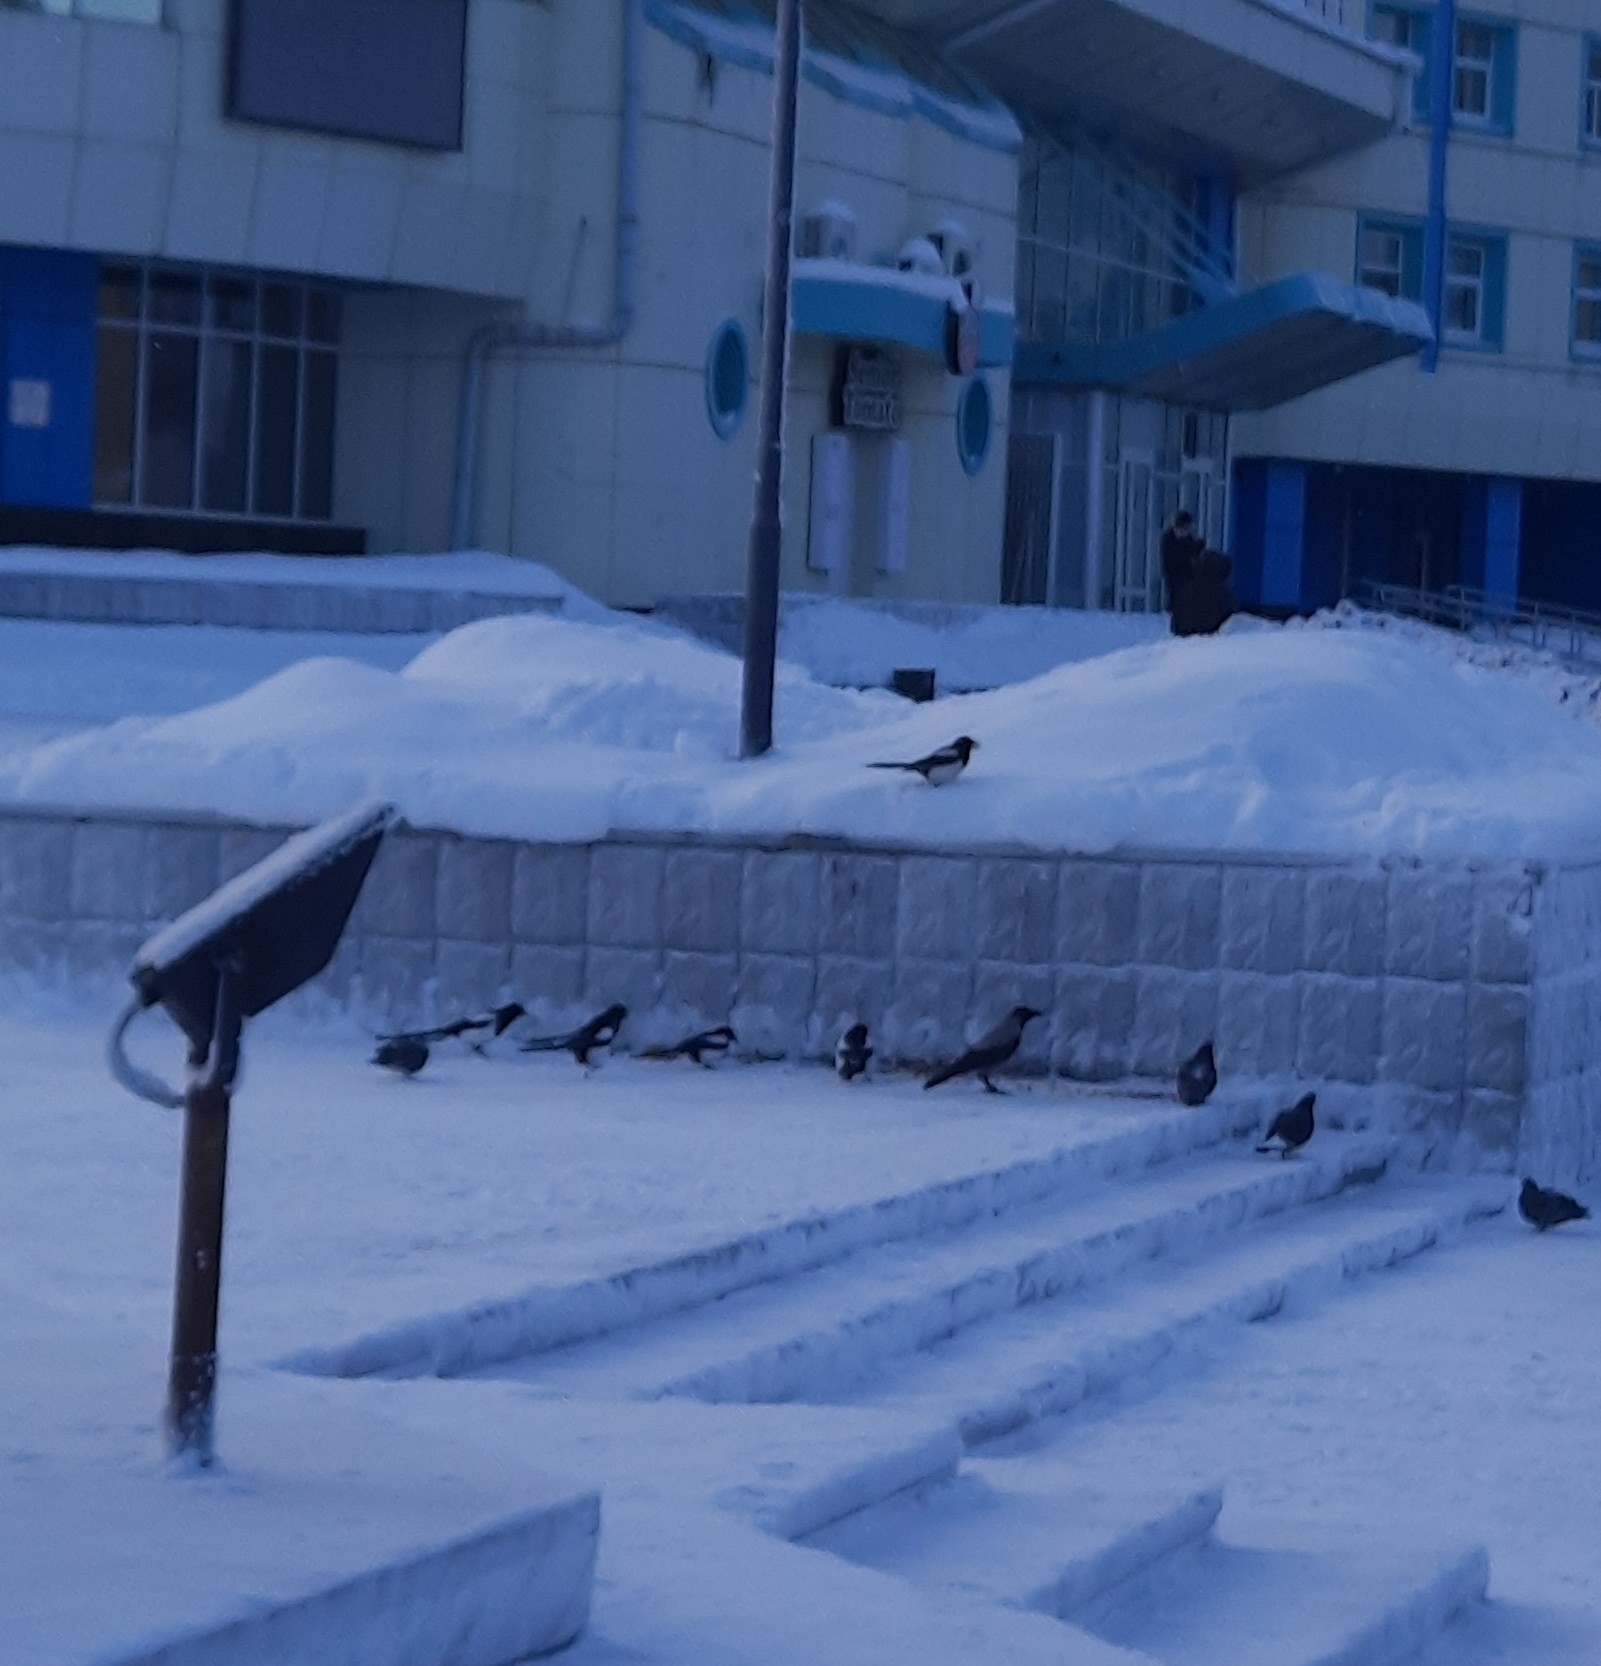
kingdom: Animalia
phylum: Chordata
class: Aves
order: Passeriformes
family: Corvidae
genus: Corvus
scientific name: Corvus cornix
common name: Hooded crow
